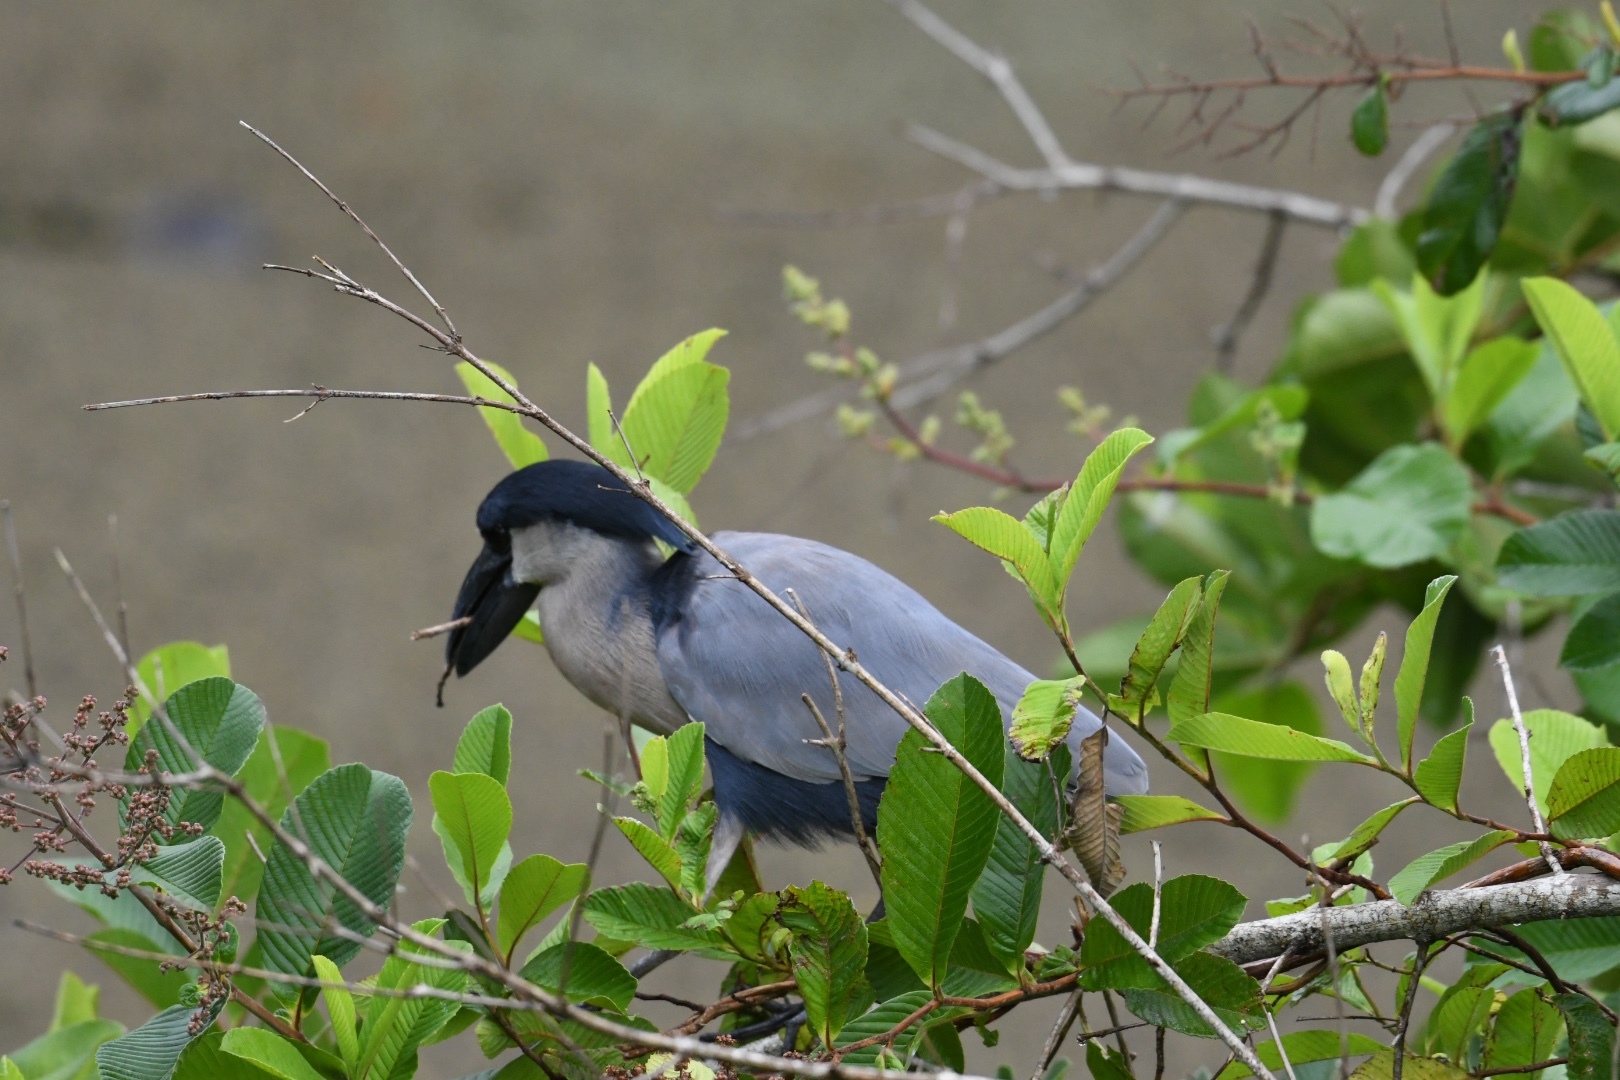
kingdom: Animalia
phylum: Chordata
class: Aves
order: Pelecaniformes
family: Ardeidae
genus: Cochlearius
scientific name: Cochlearius cochlearius
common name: Boat-billed heron
